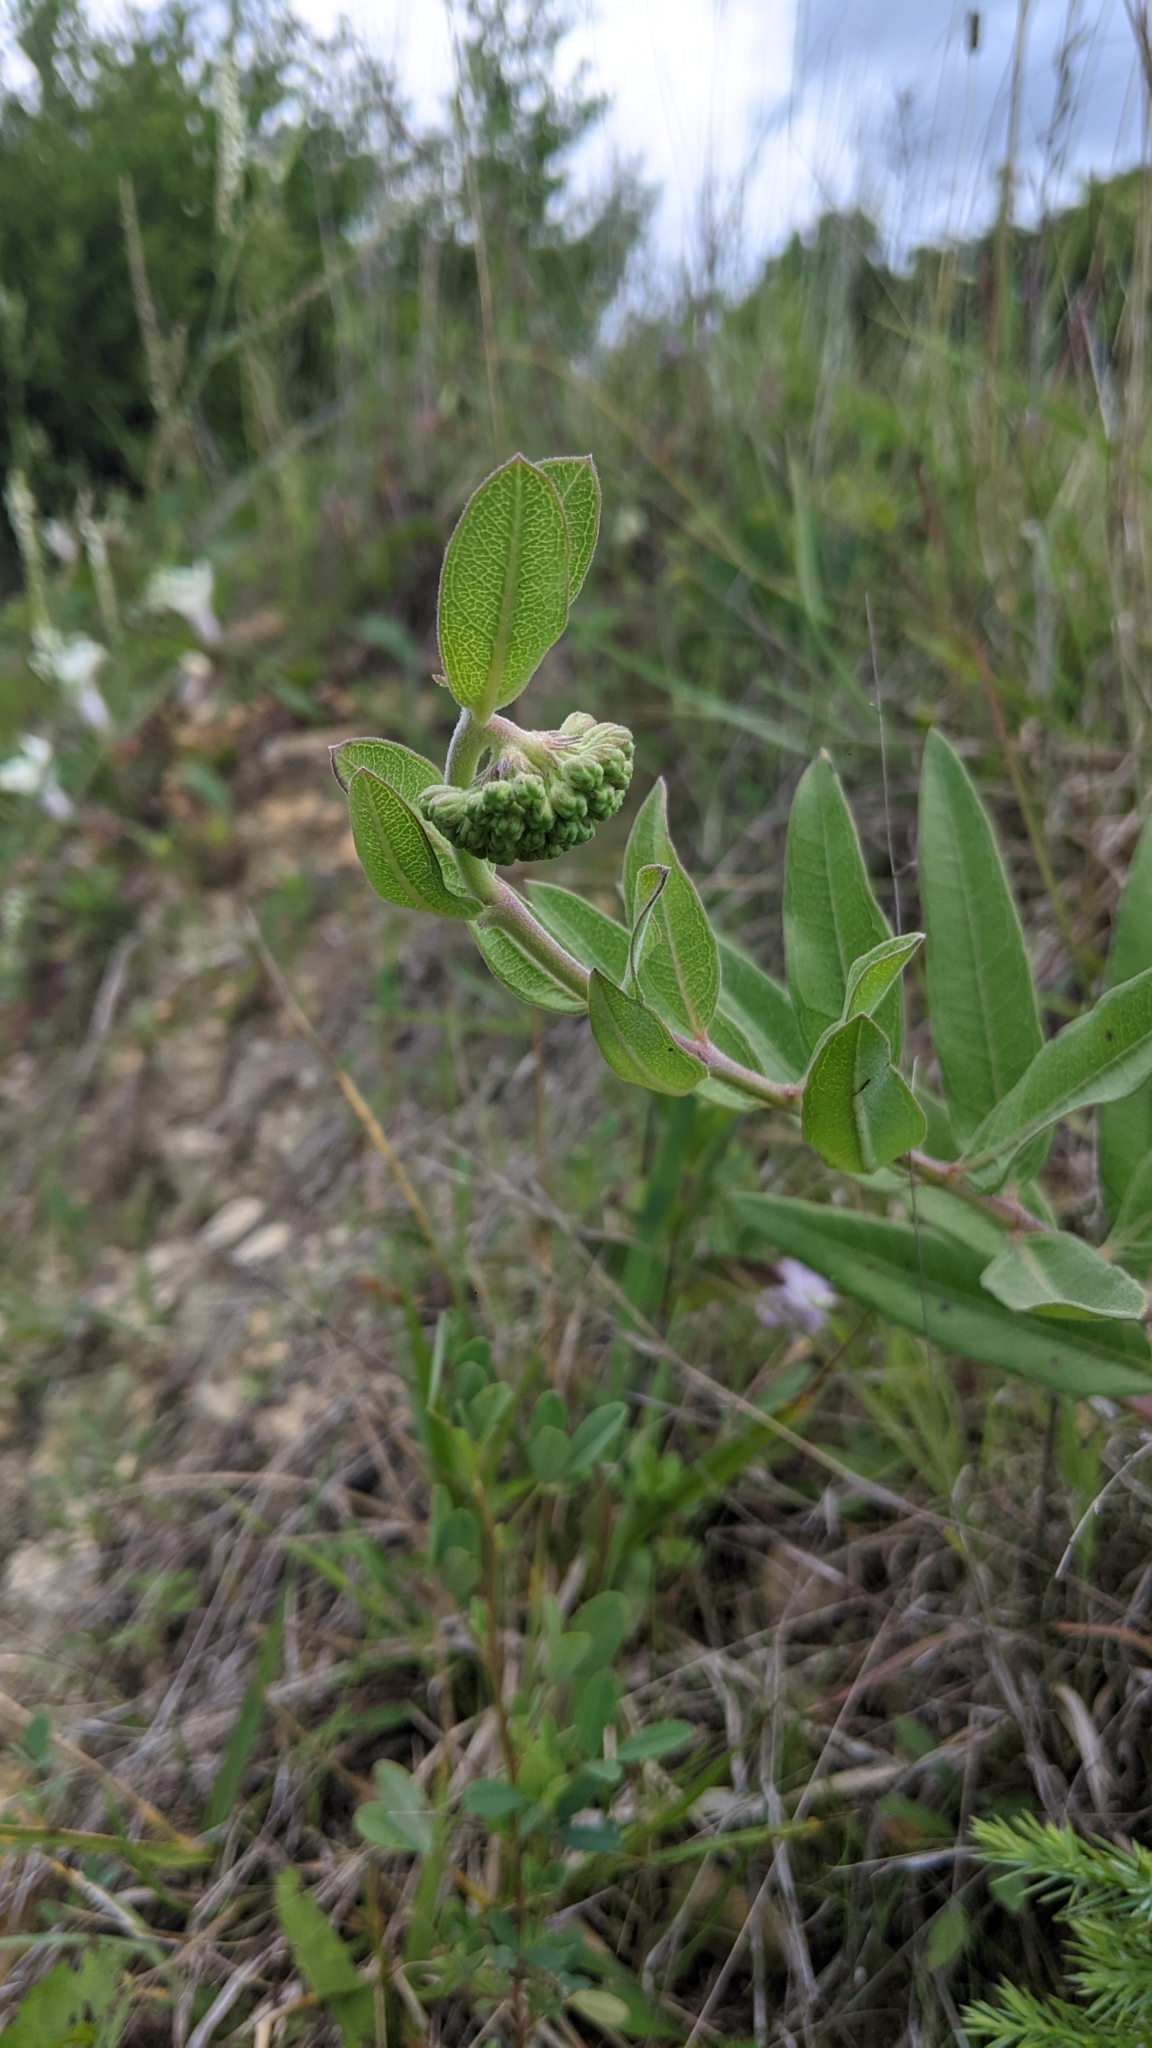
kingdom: Plantae
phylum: Tracheophyta
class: Magnoliopsida
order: Gentianales
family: Apocynaceae
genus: Asclepias
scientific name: Asclepias viridiflora
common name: Green comet milkweed
